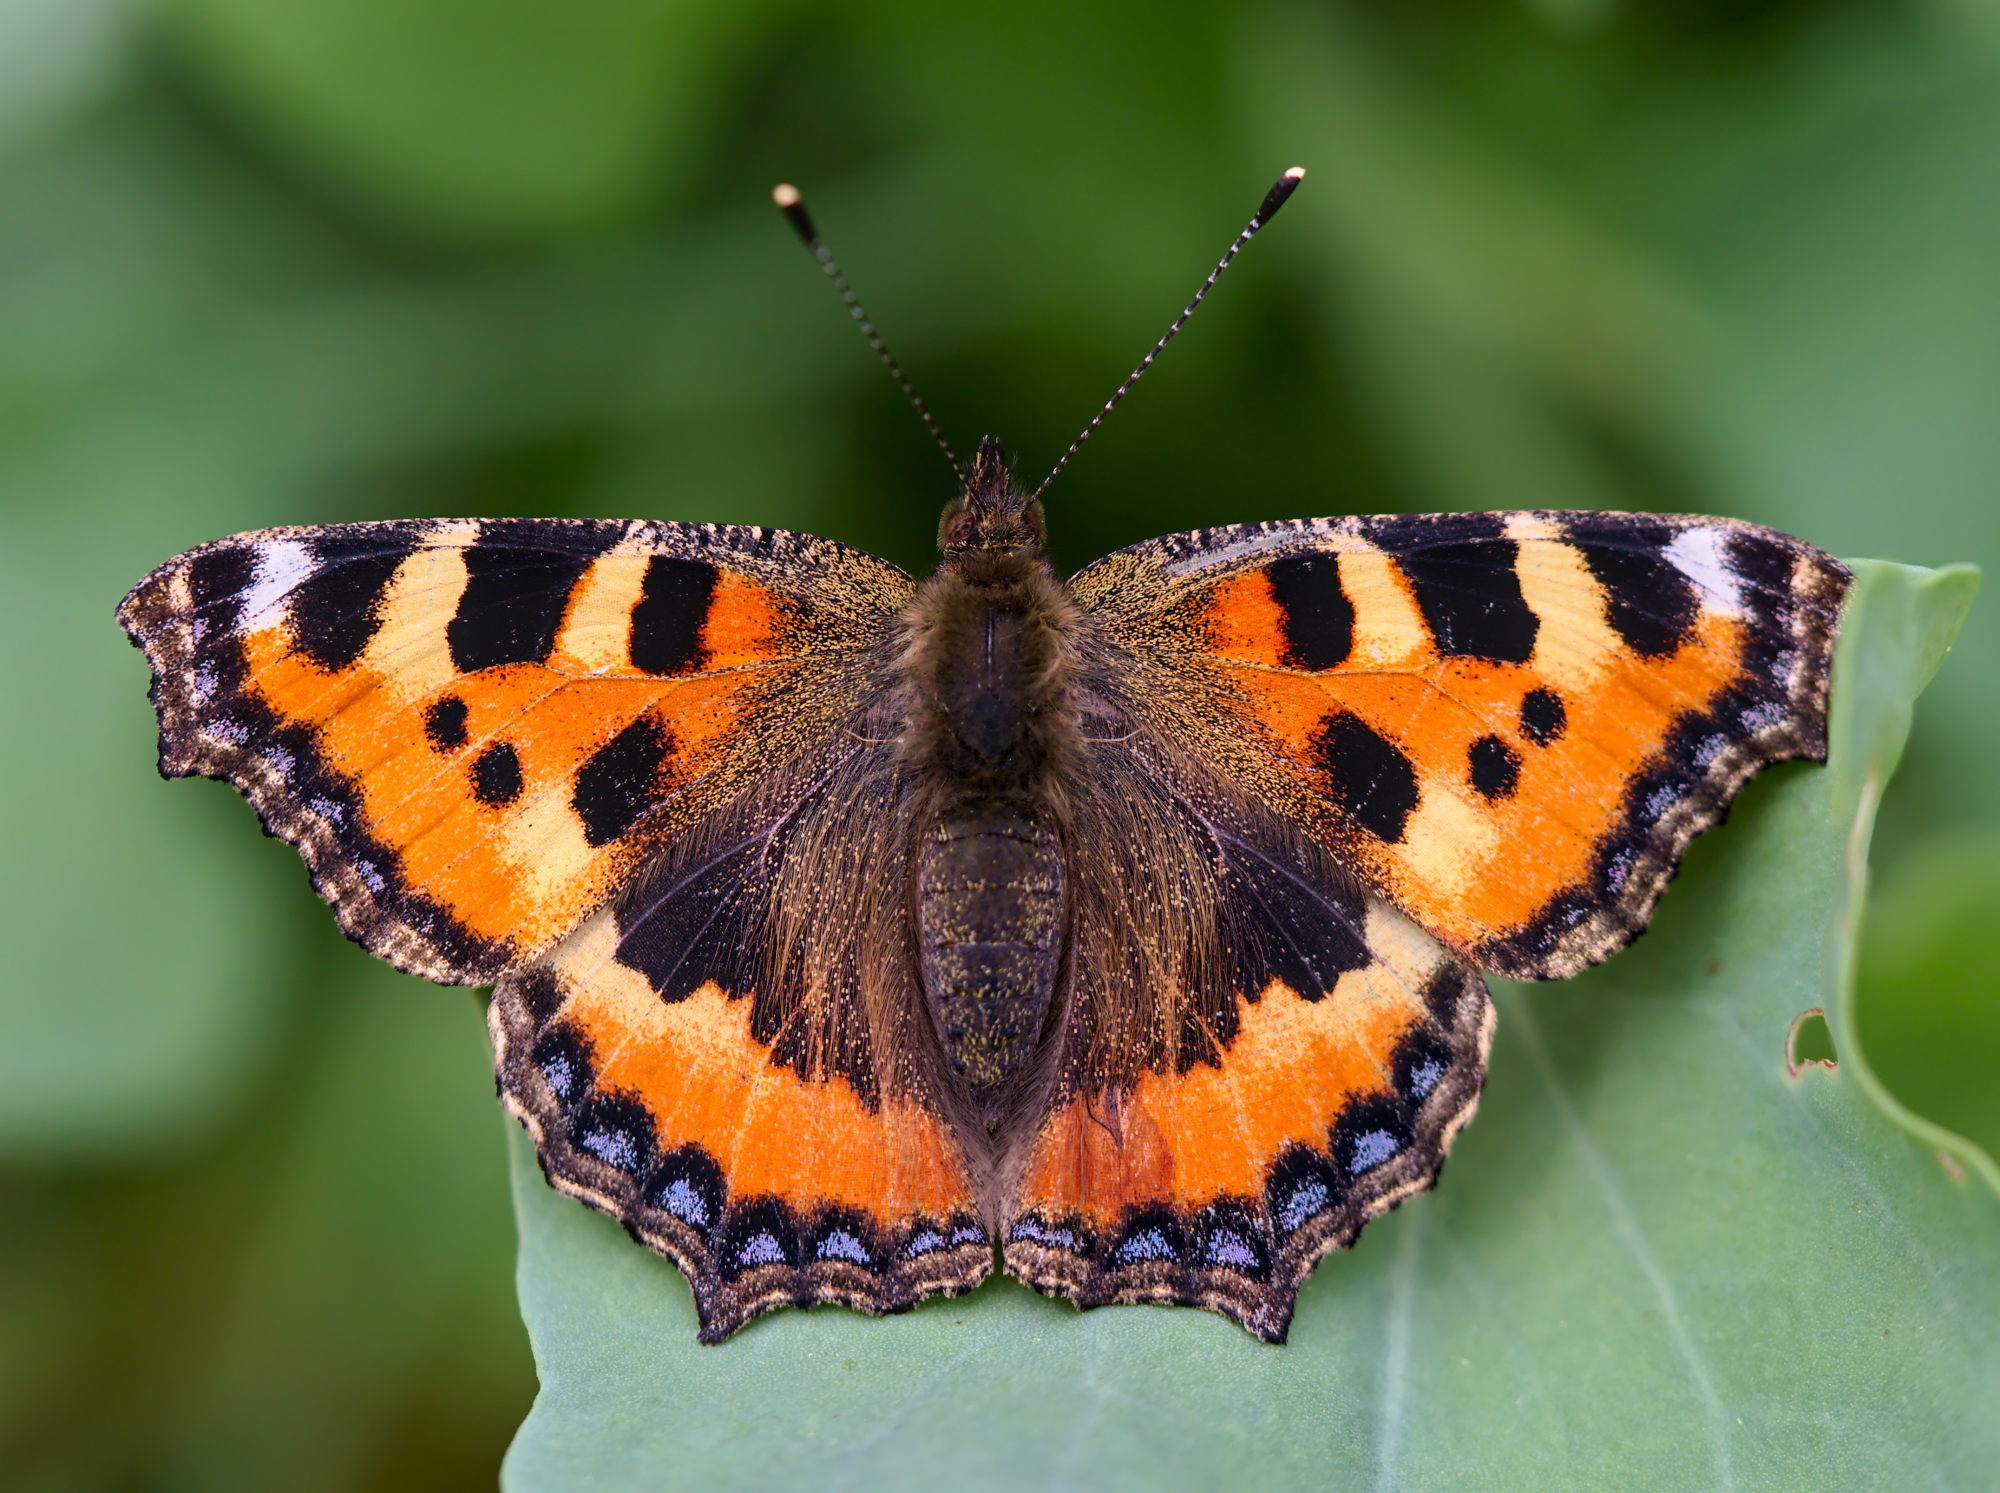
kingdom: Animalia
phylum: Arthropoda
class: Insecta
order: Lepidoptera
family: Nymphalidae
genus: Aglais
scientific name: Aglais urticae
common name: Small tortoiseshell
